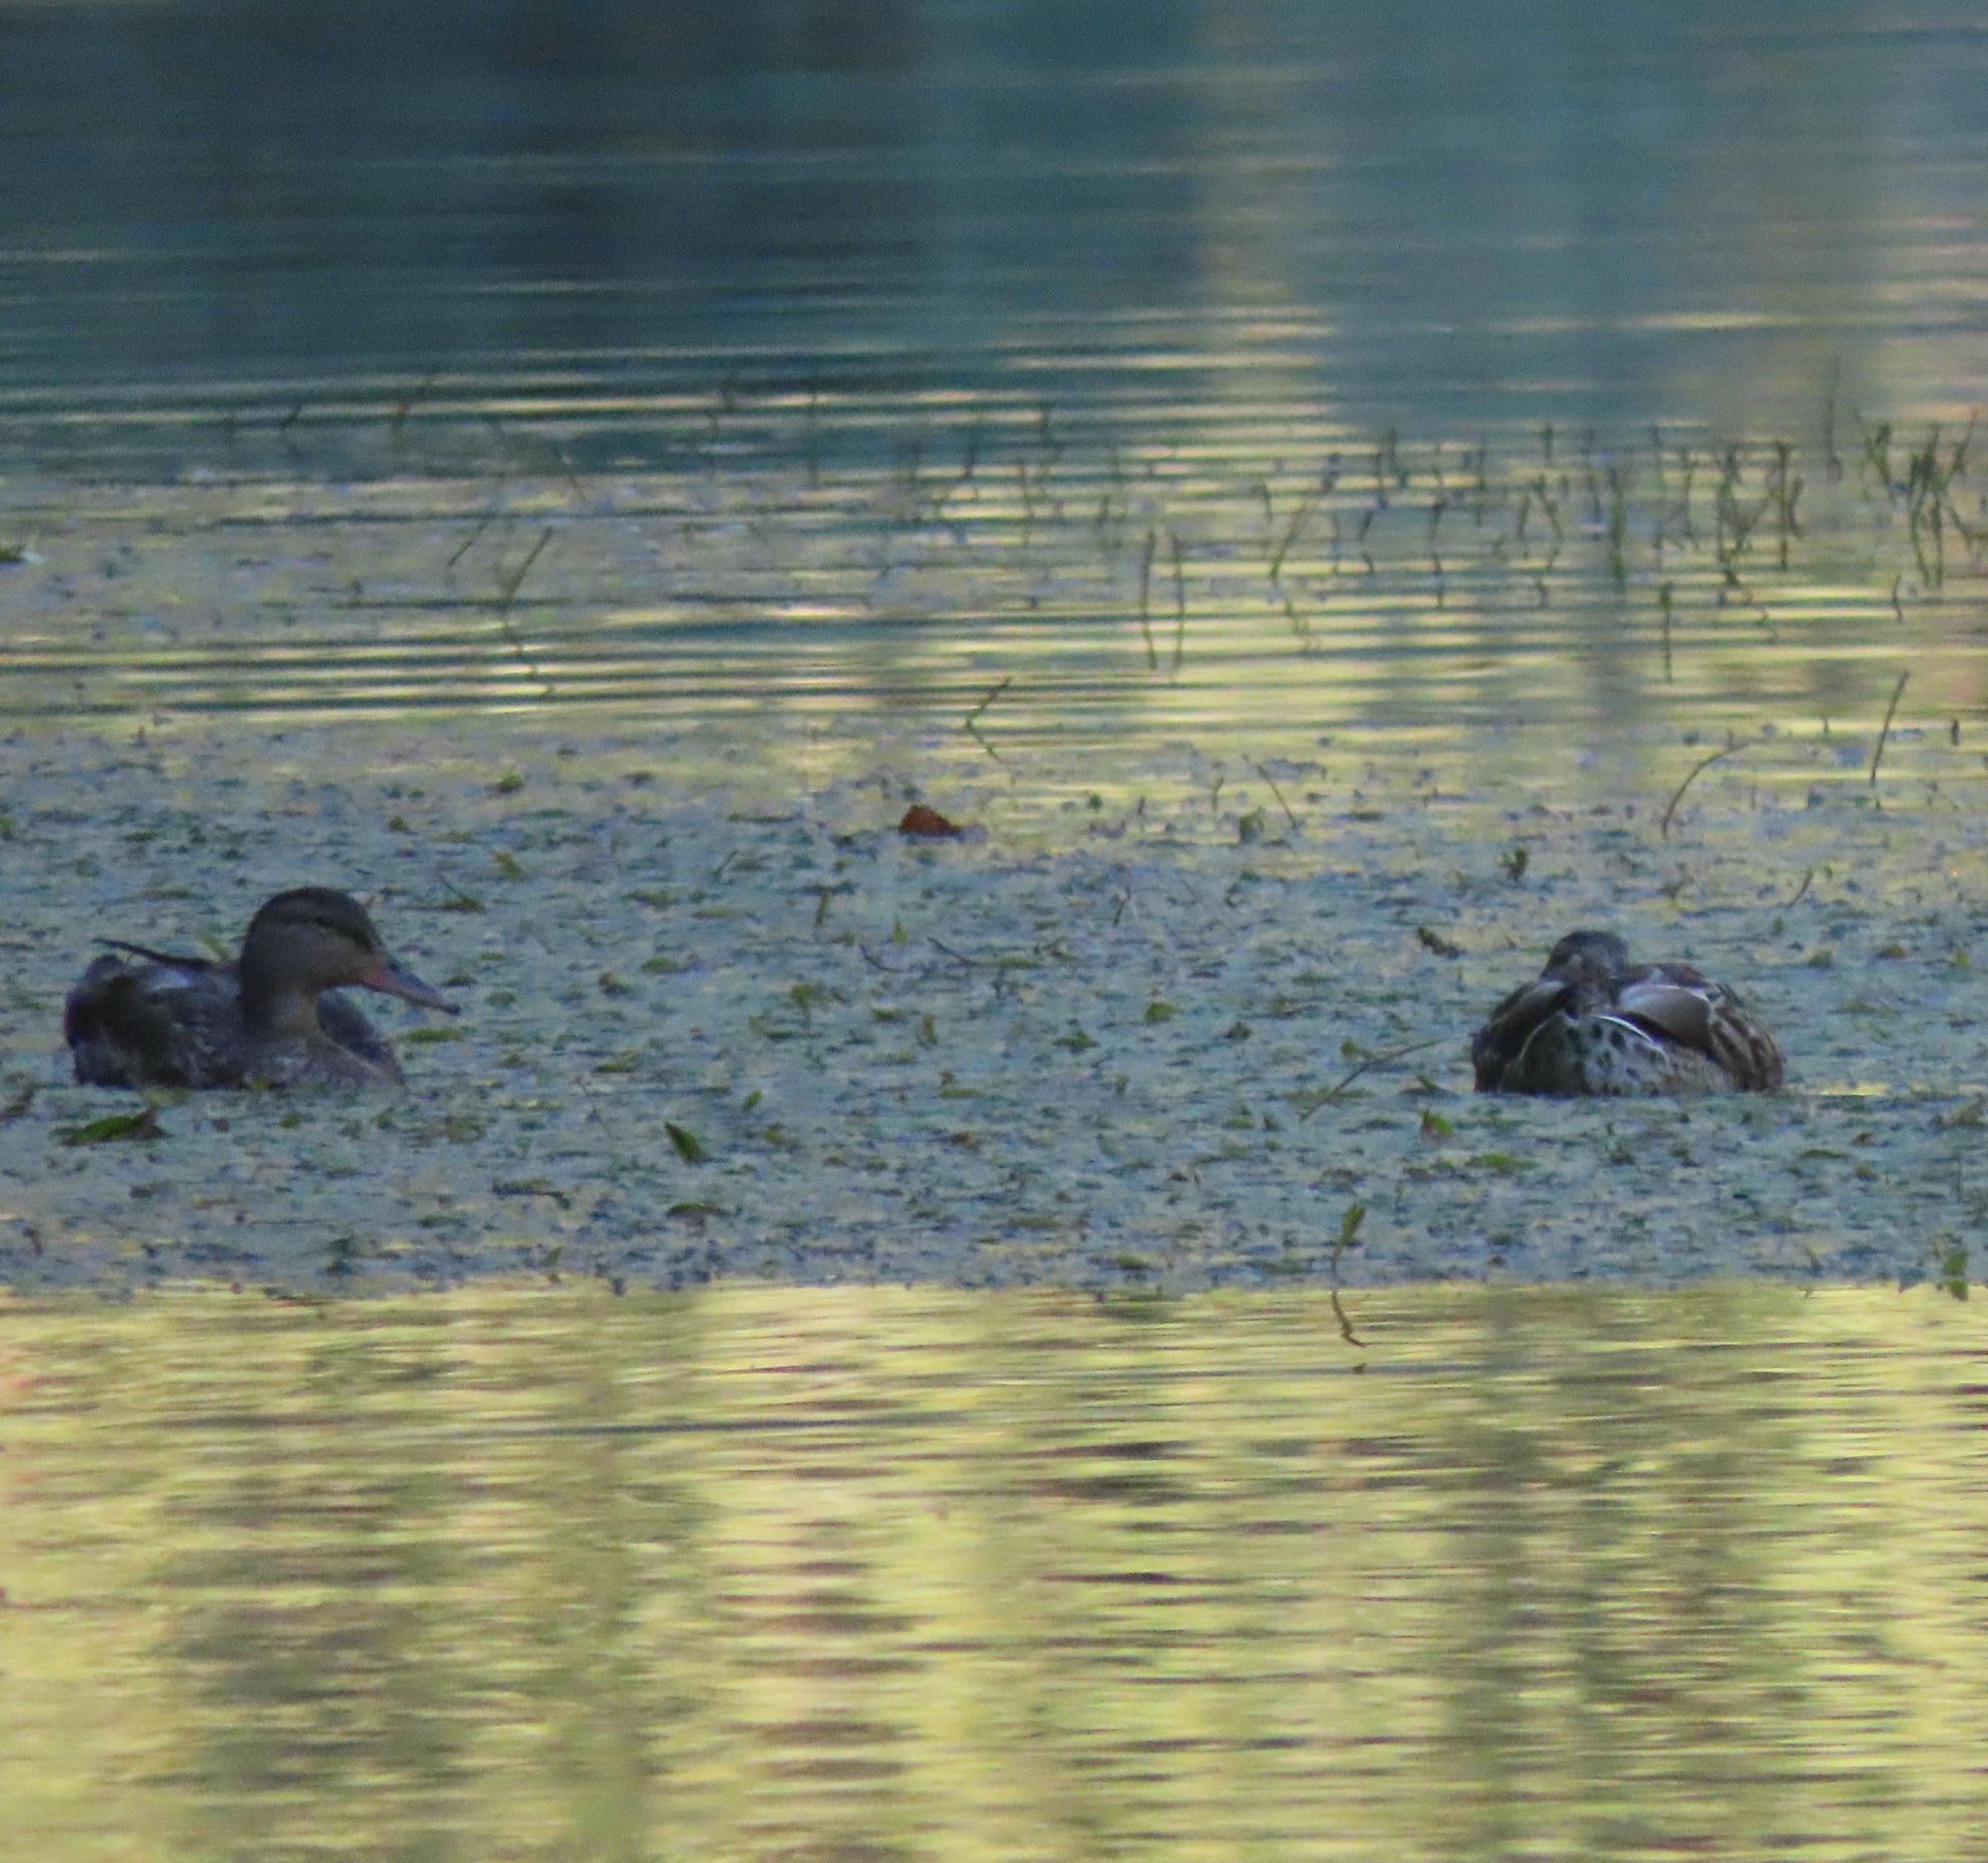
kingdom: Animalia
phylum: Chordata
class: Aves
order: Anseriformes
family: Anatidae
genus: Anas
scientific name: Anas platyrhynchos
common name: Mallard
